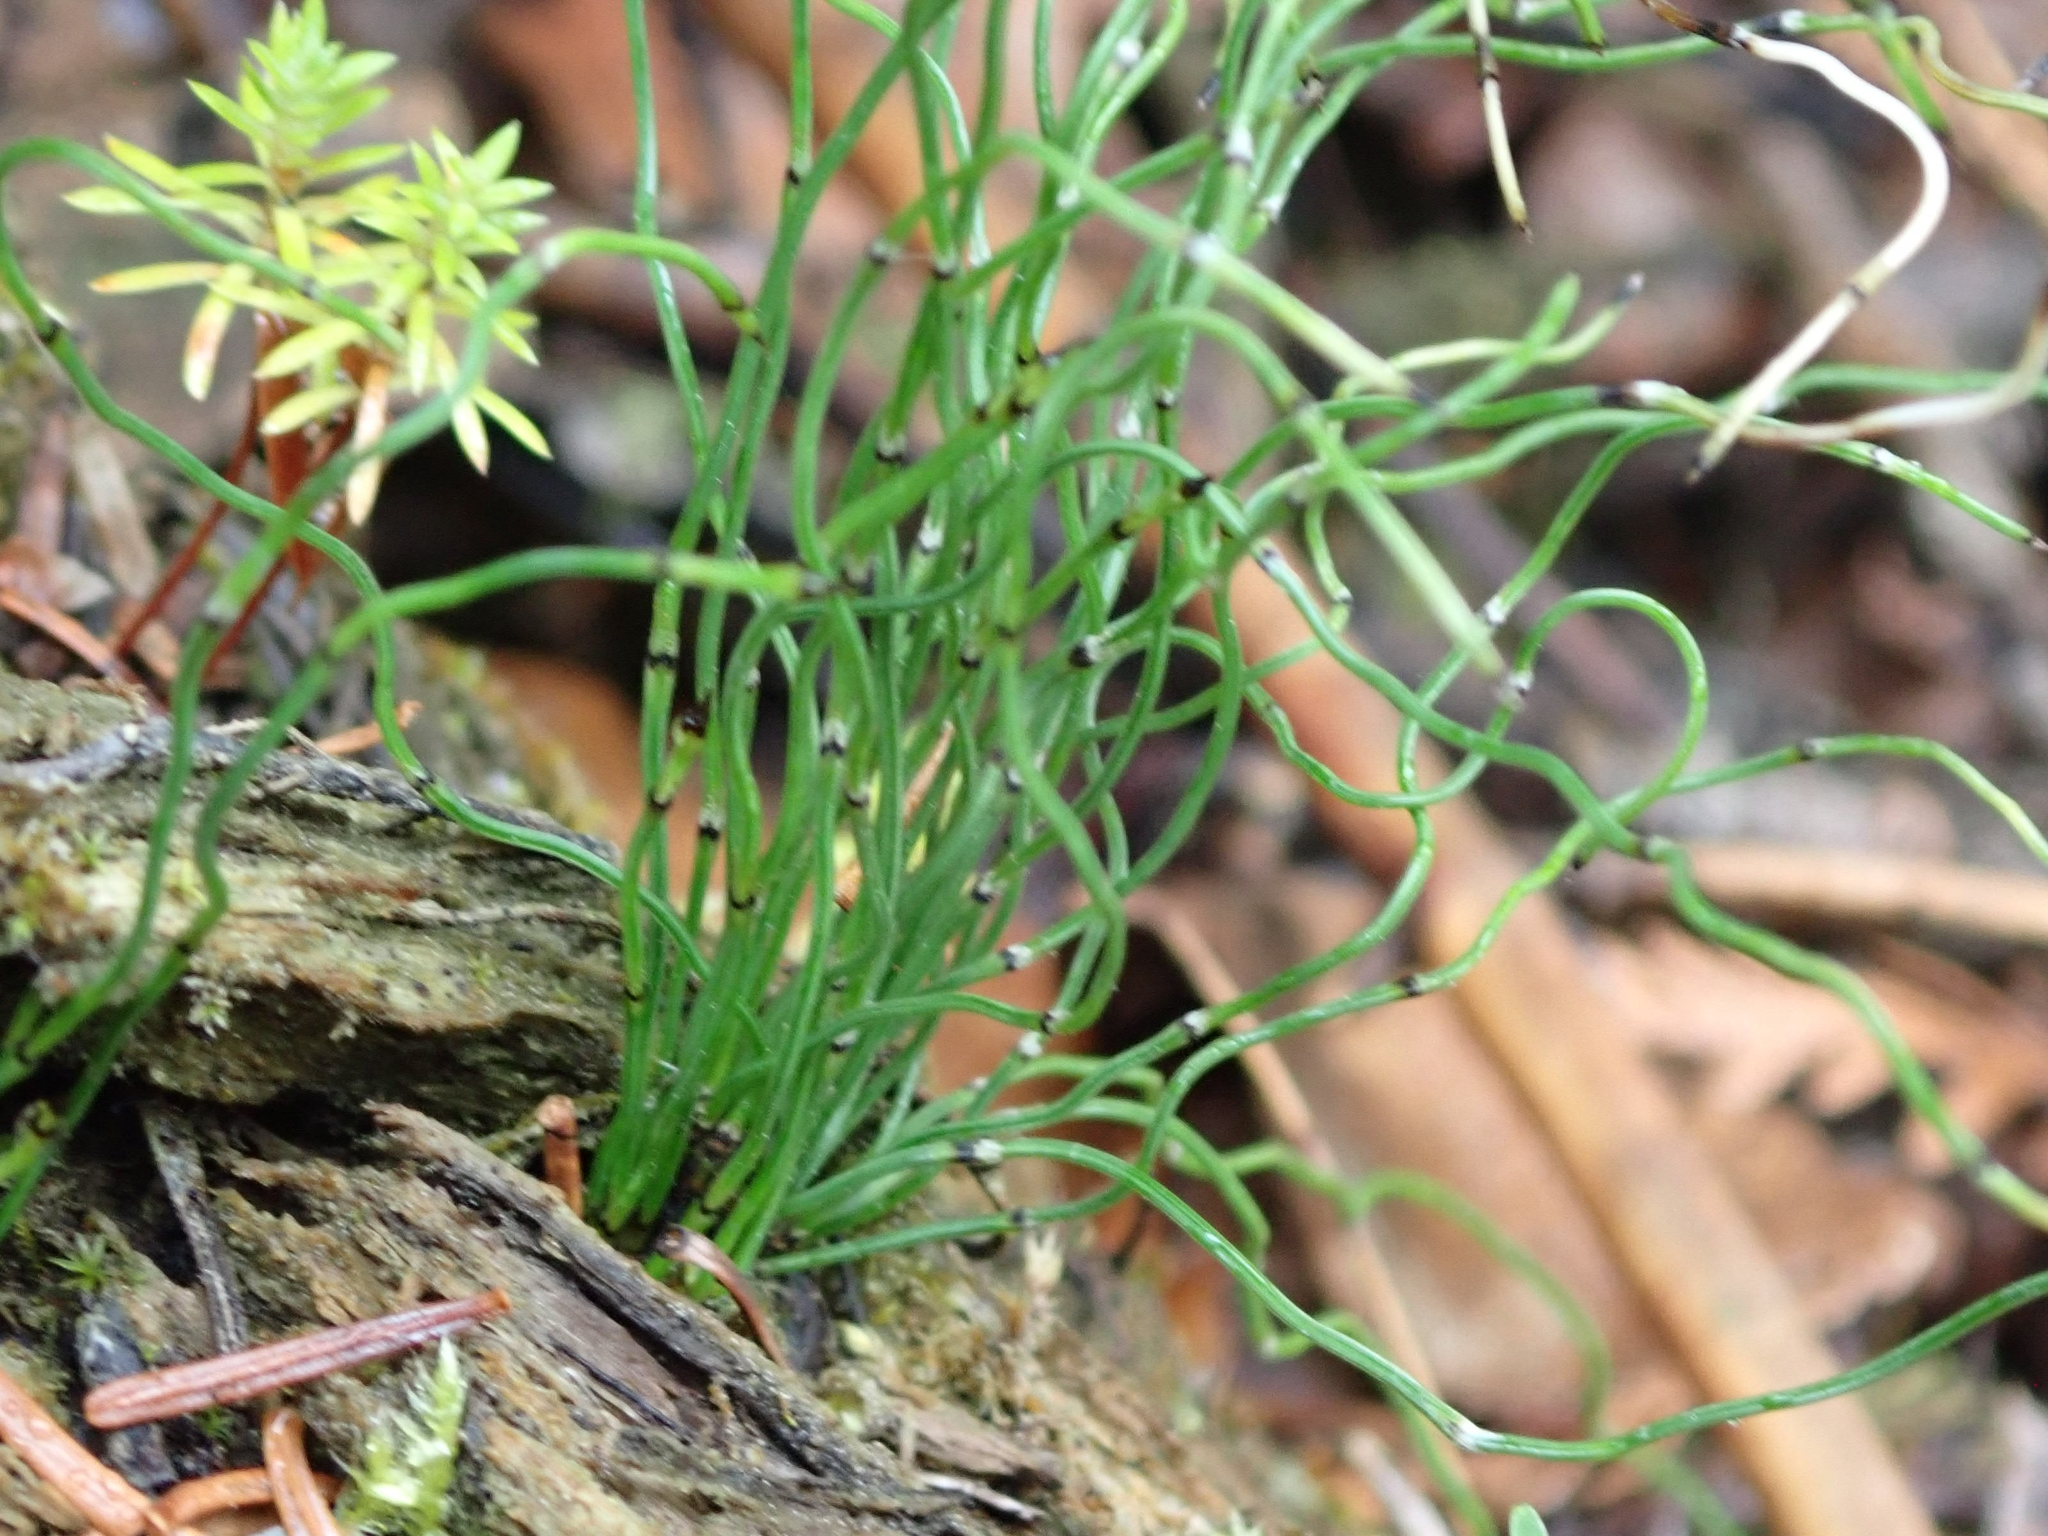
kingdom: Plantae
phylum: Tracheophyta
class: Polypodiopsida
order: Equisetales
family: Equisetaceae
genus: Equisetum
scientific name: Equisetum scirpoides
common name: Delicate horsetail
